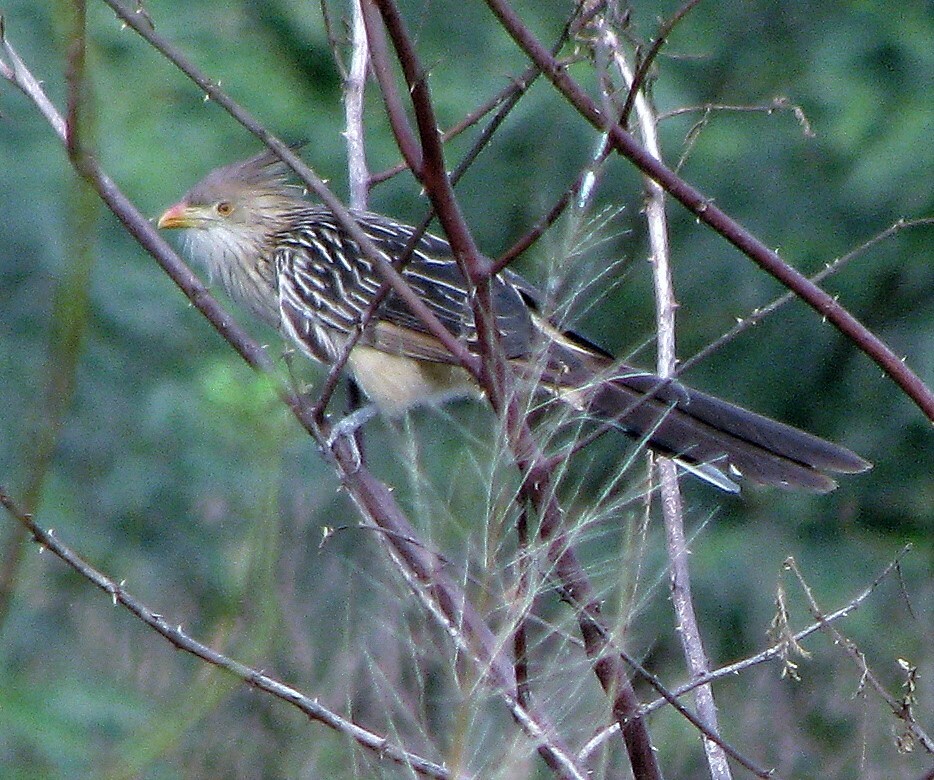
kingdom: Animalia
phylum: Chordata
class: Aves
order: Cuculiformes
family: Cuculidae
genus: Guira
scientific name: Guira guira
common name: Guira cuckoo
